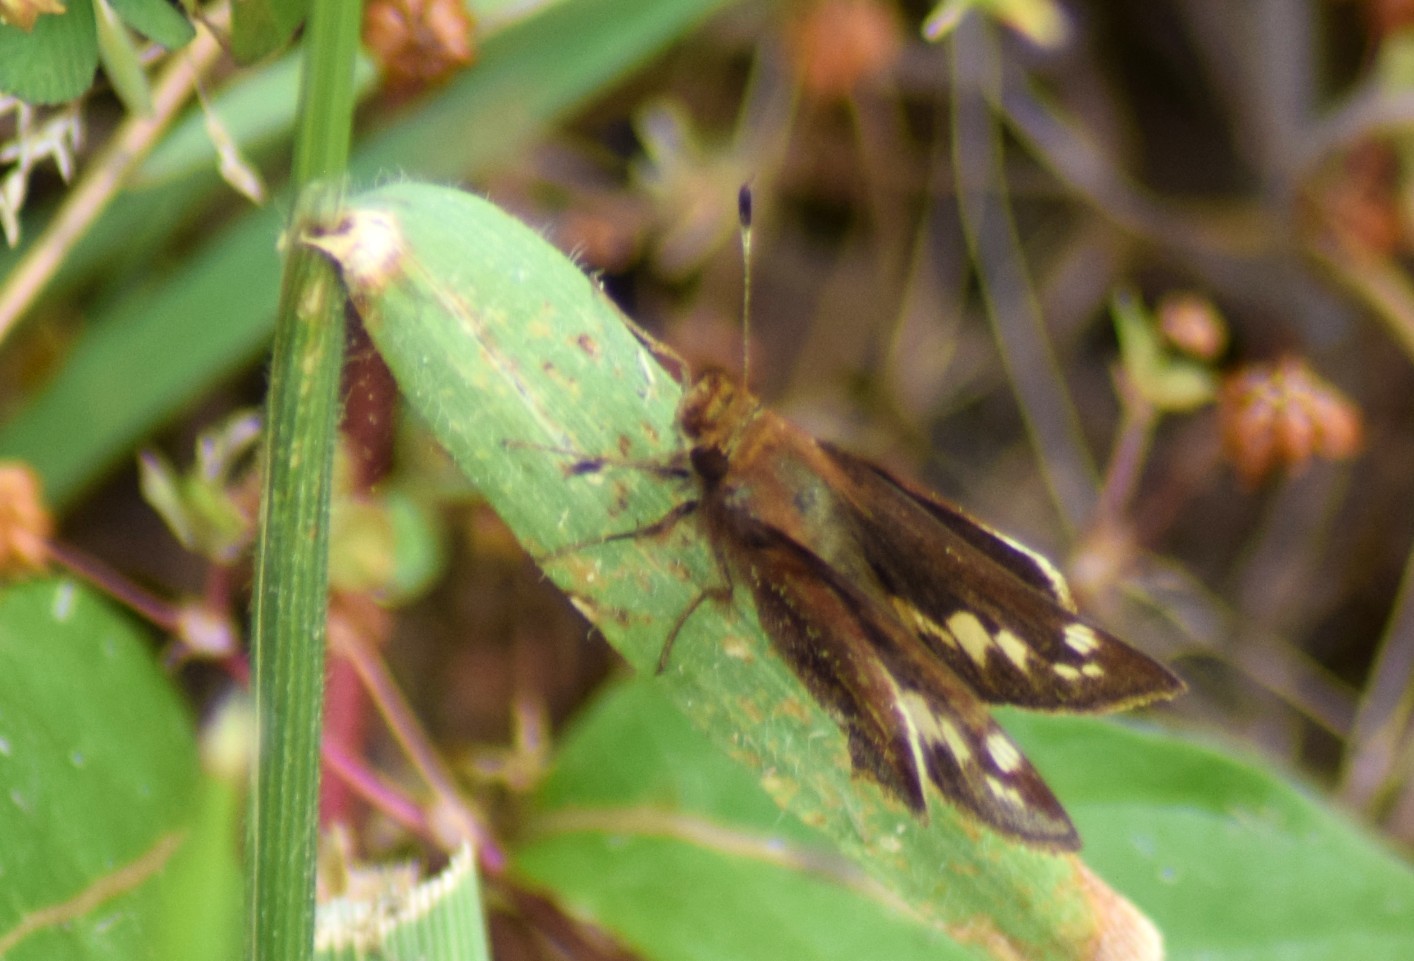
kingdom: Animalia
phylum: Arthropoda
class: Insecta
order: Lepidoptera
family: Hesperiidae
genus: Lon
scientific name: Lon zabulon
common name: Zabulon skipper
